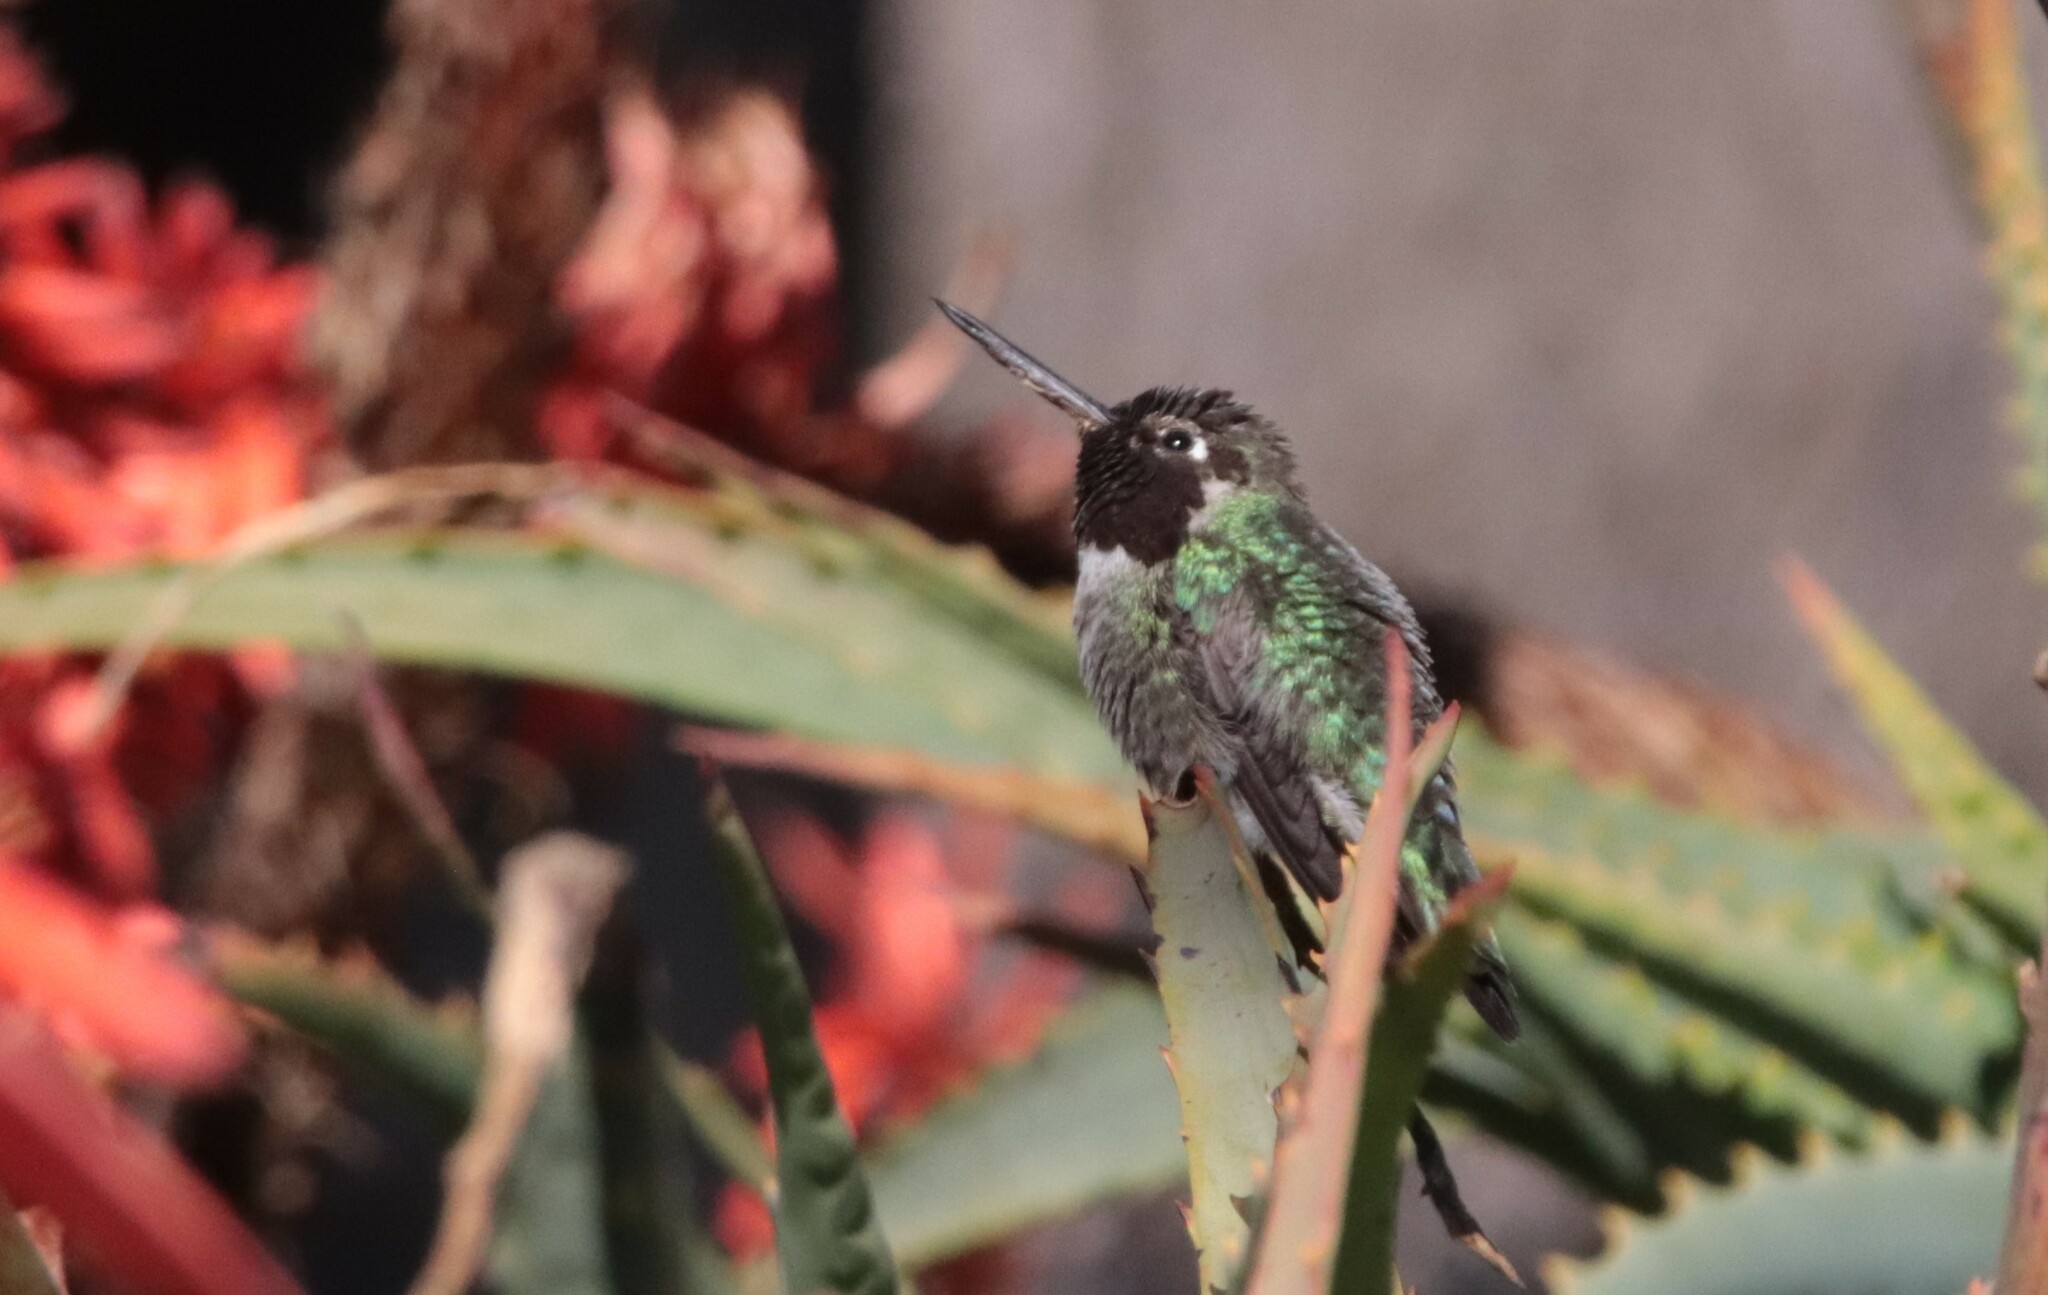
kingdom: Animalia
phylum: Chordata
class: Aves
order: Apodiformes
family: Trochilidae
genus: Calypte
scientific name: Calypte anna
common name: Anna's hummingbird
